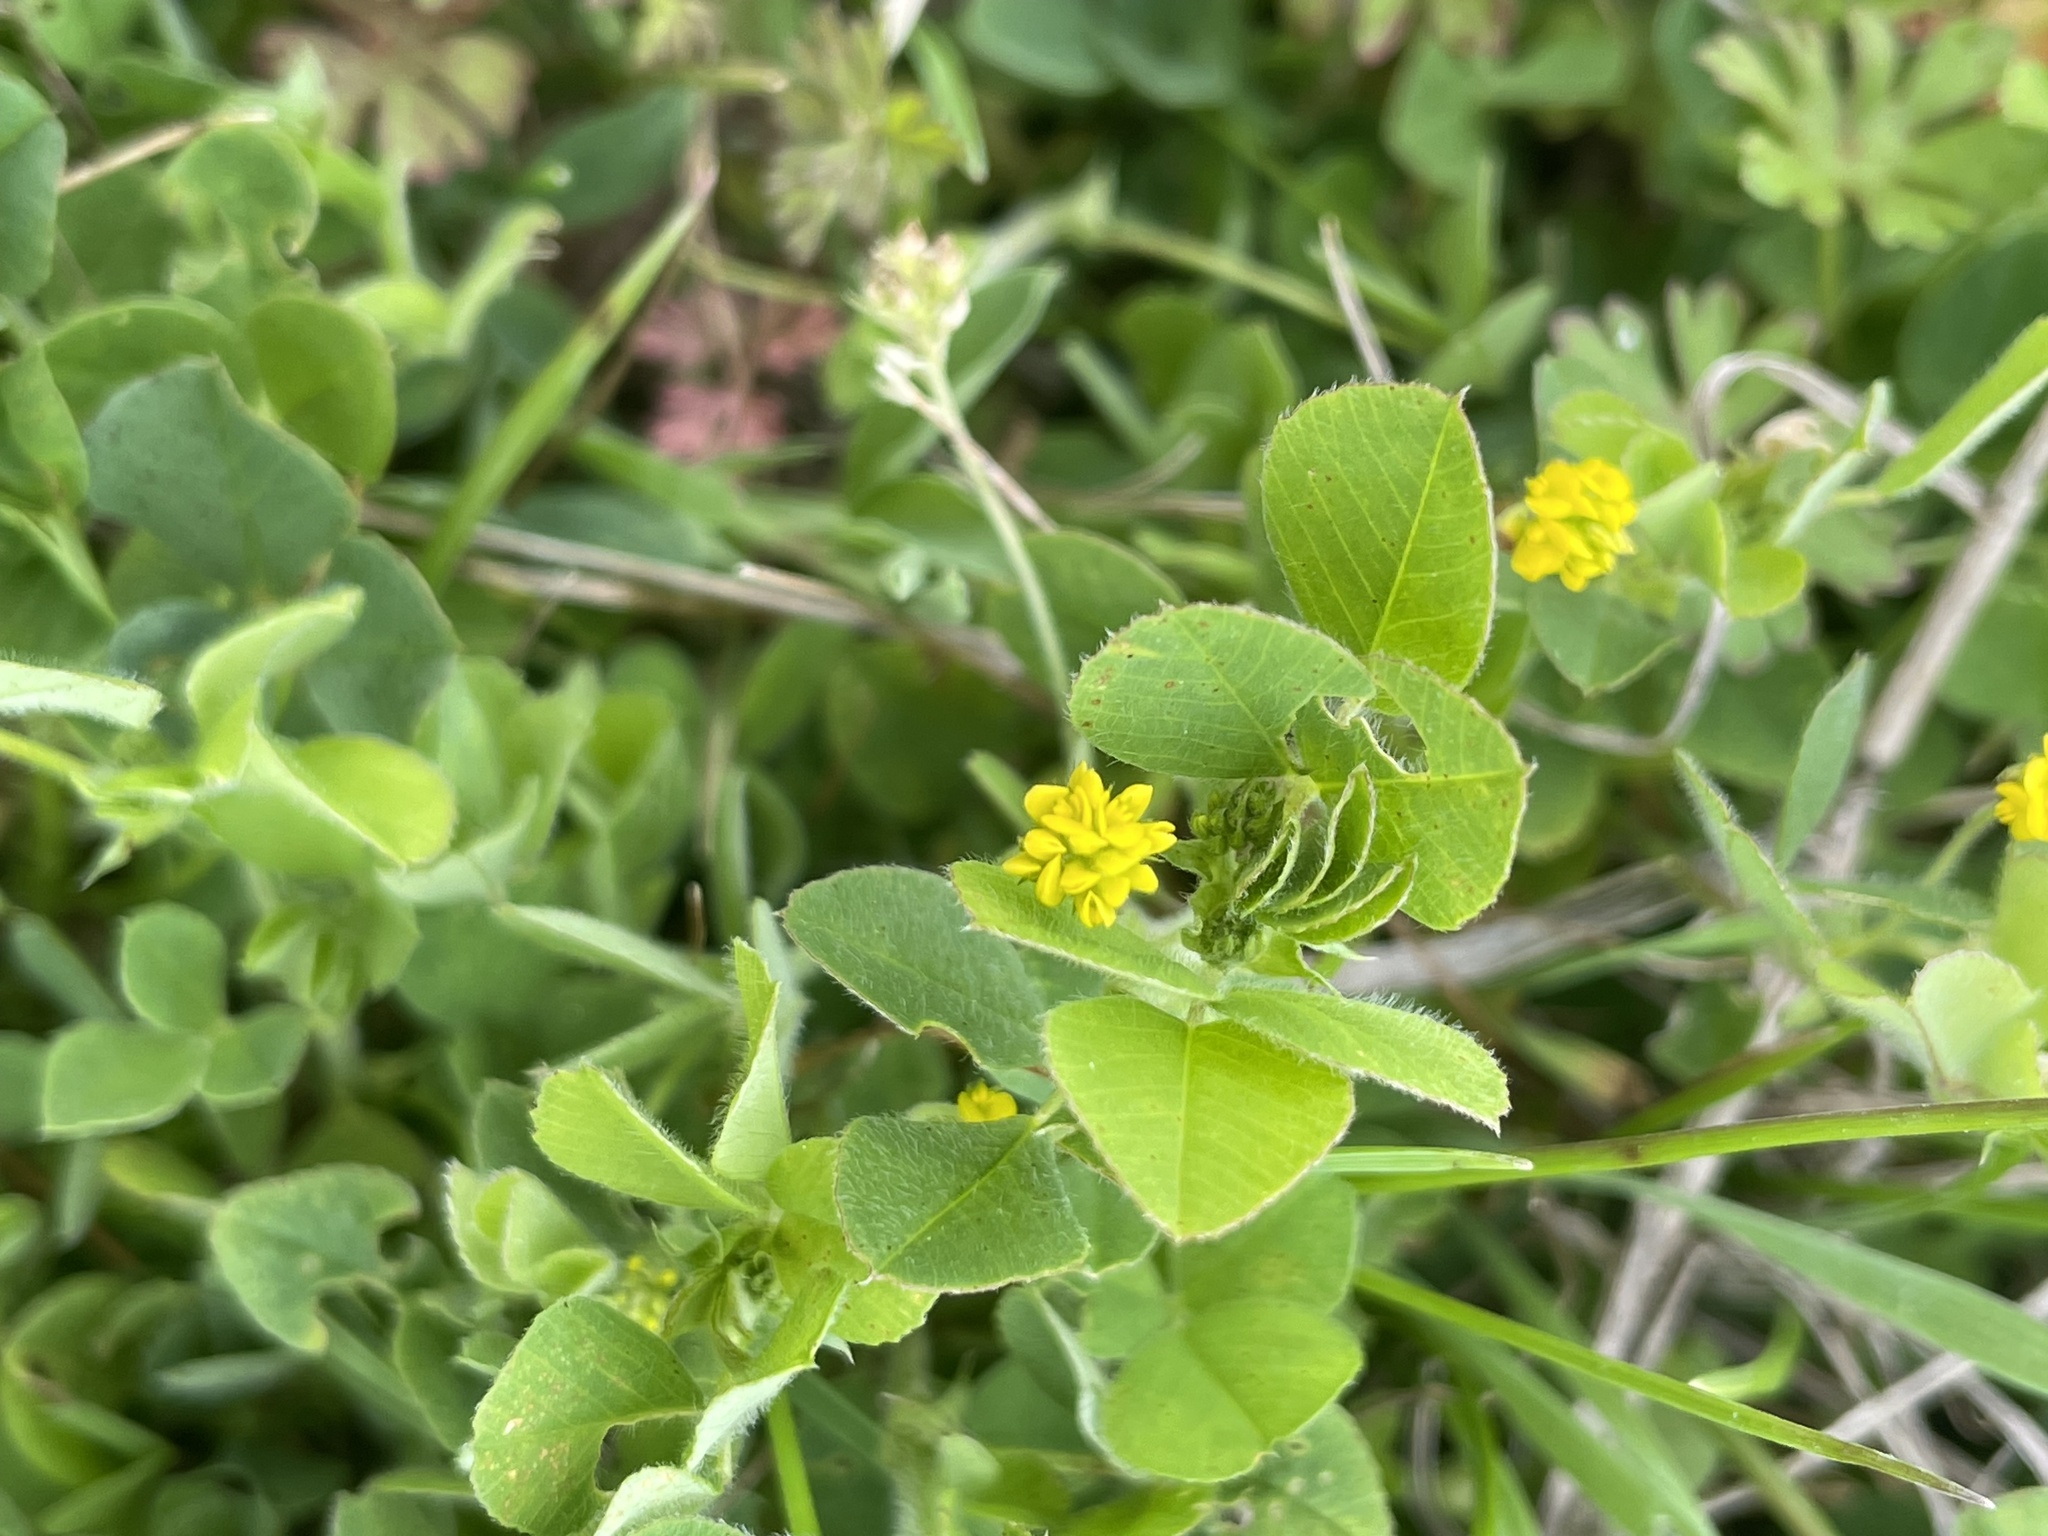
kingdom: Plantae
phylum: Tracheophyta
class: Magnoliopsida
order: Fabales
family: Fabaceae
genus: Medicago
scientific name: Medicago lupulina
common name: Black medick
